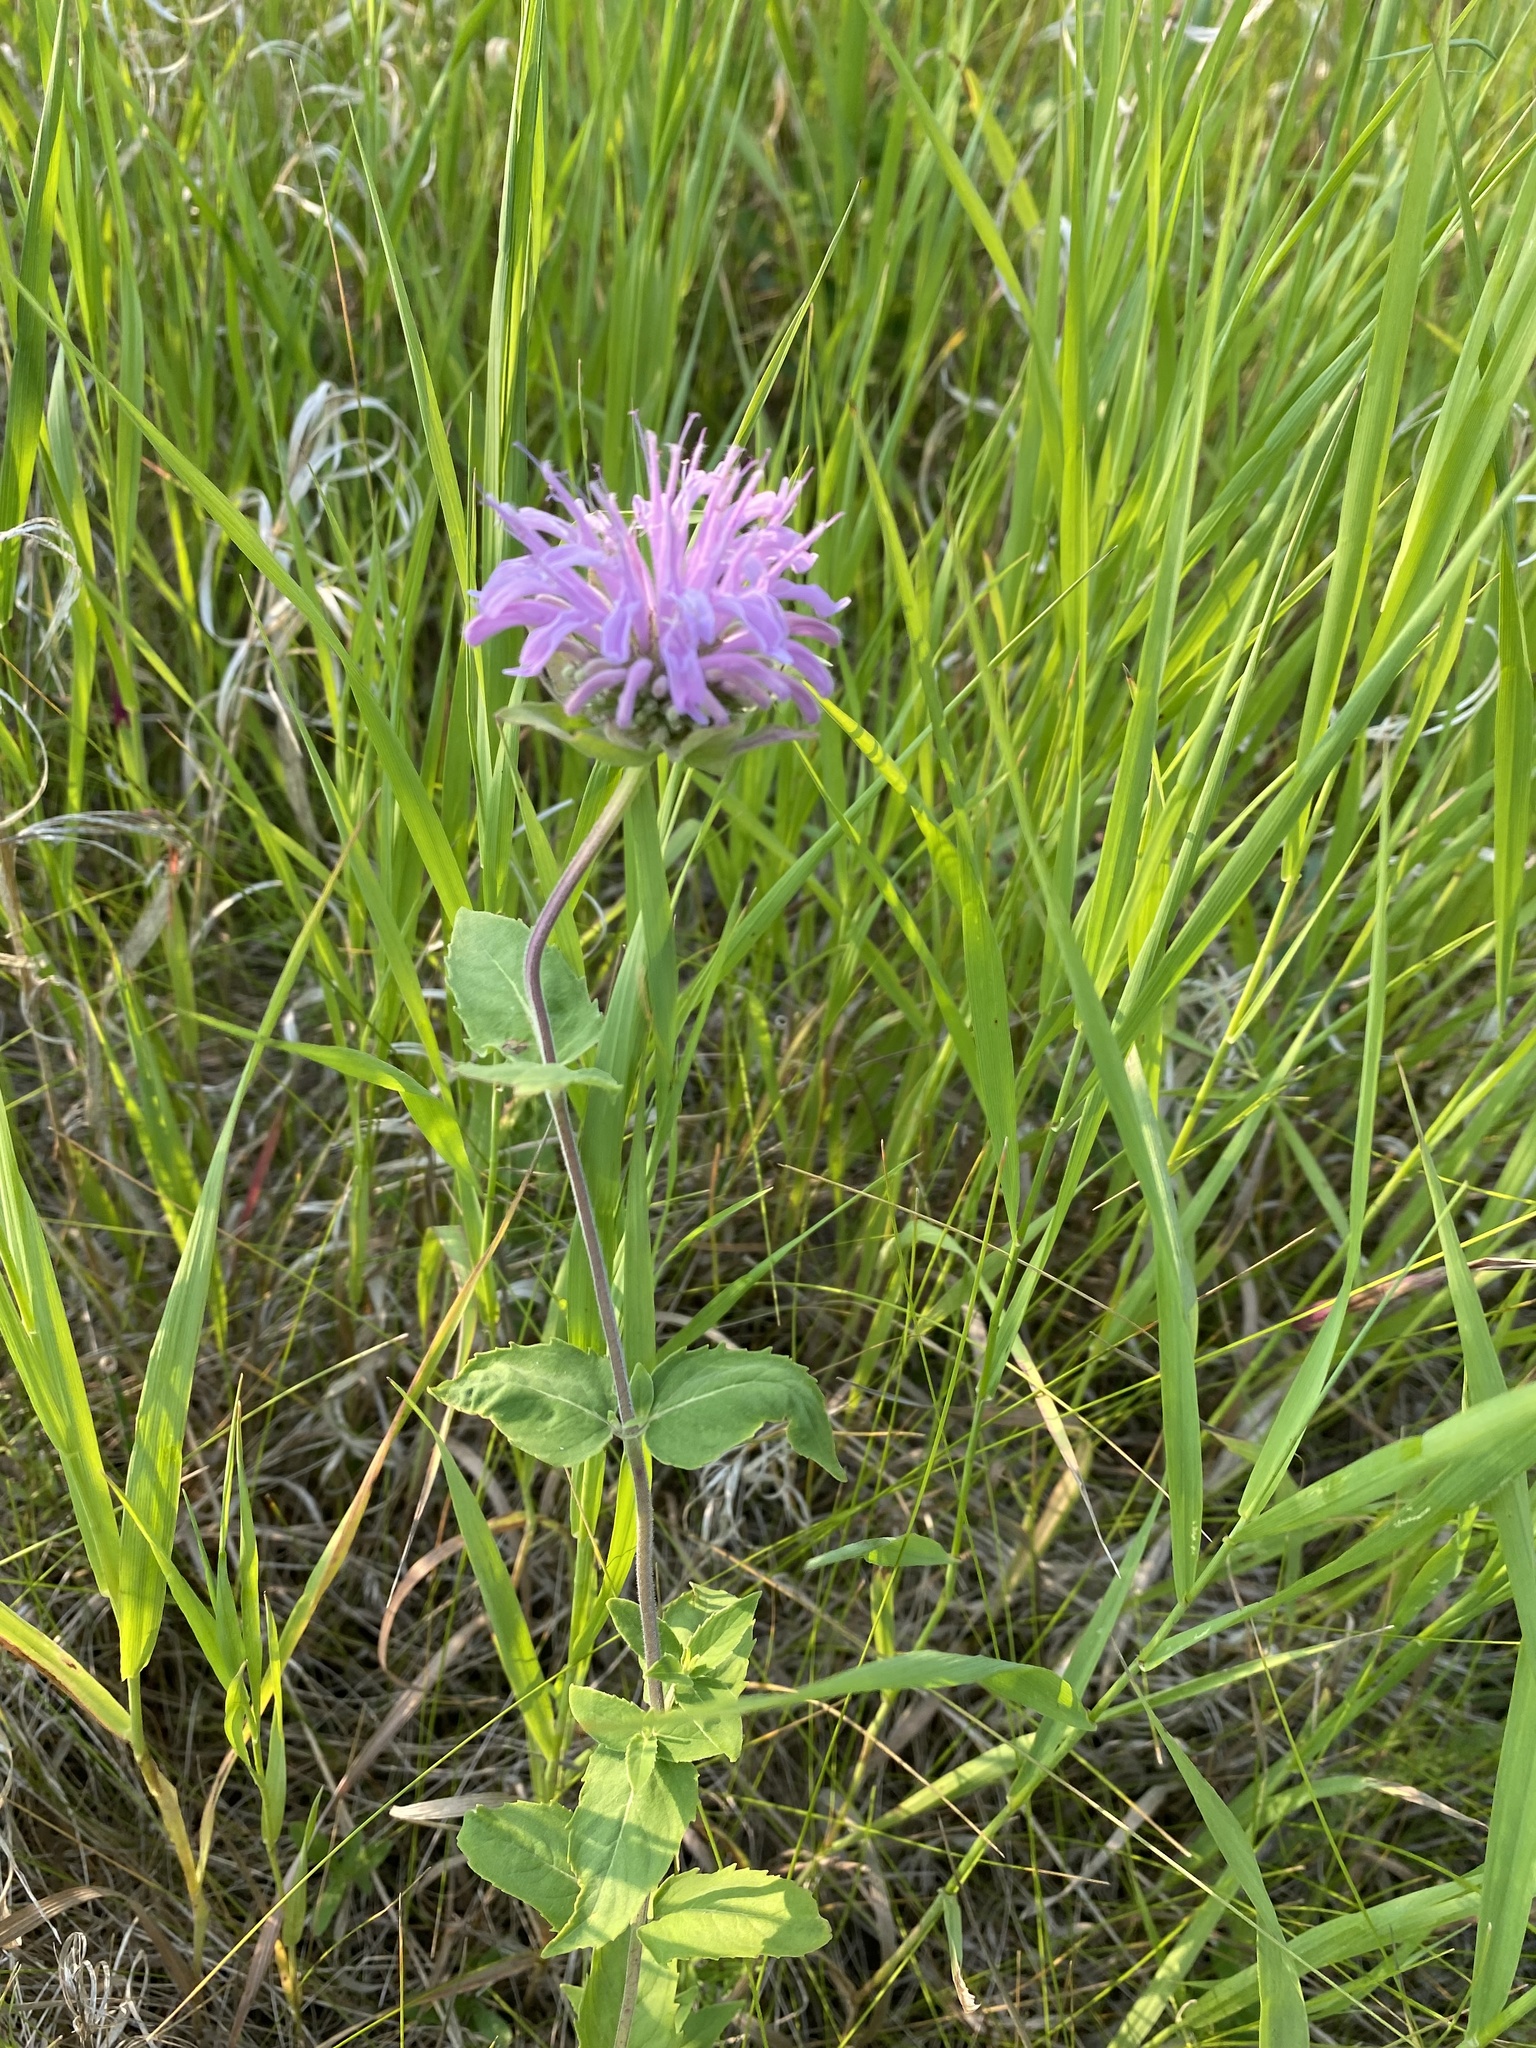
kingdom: Plantae
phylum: Tracheophyta
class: Magnoliopsida
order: Lamiales
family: Lamiaceae
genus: Monarda
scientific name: Monarda fistulosa
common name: Purple beebalm
